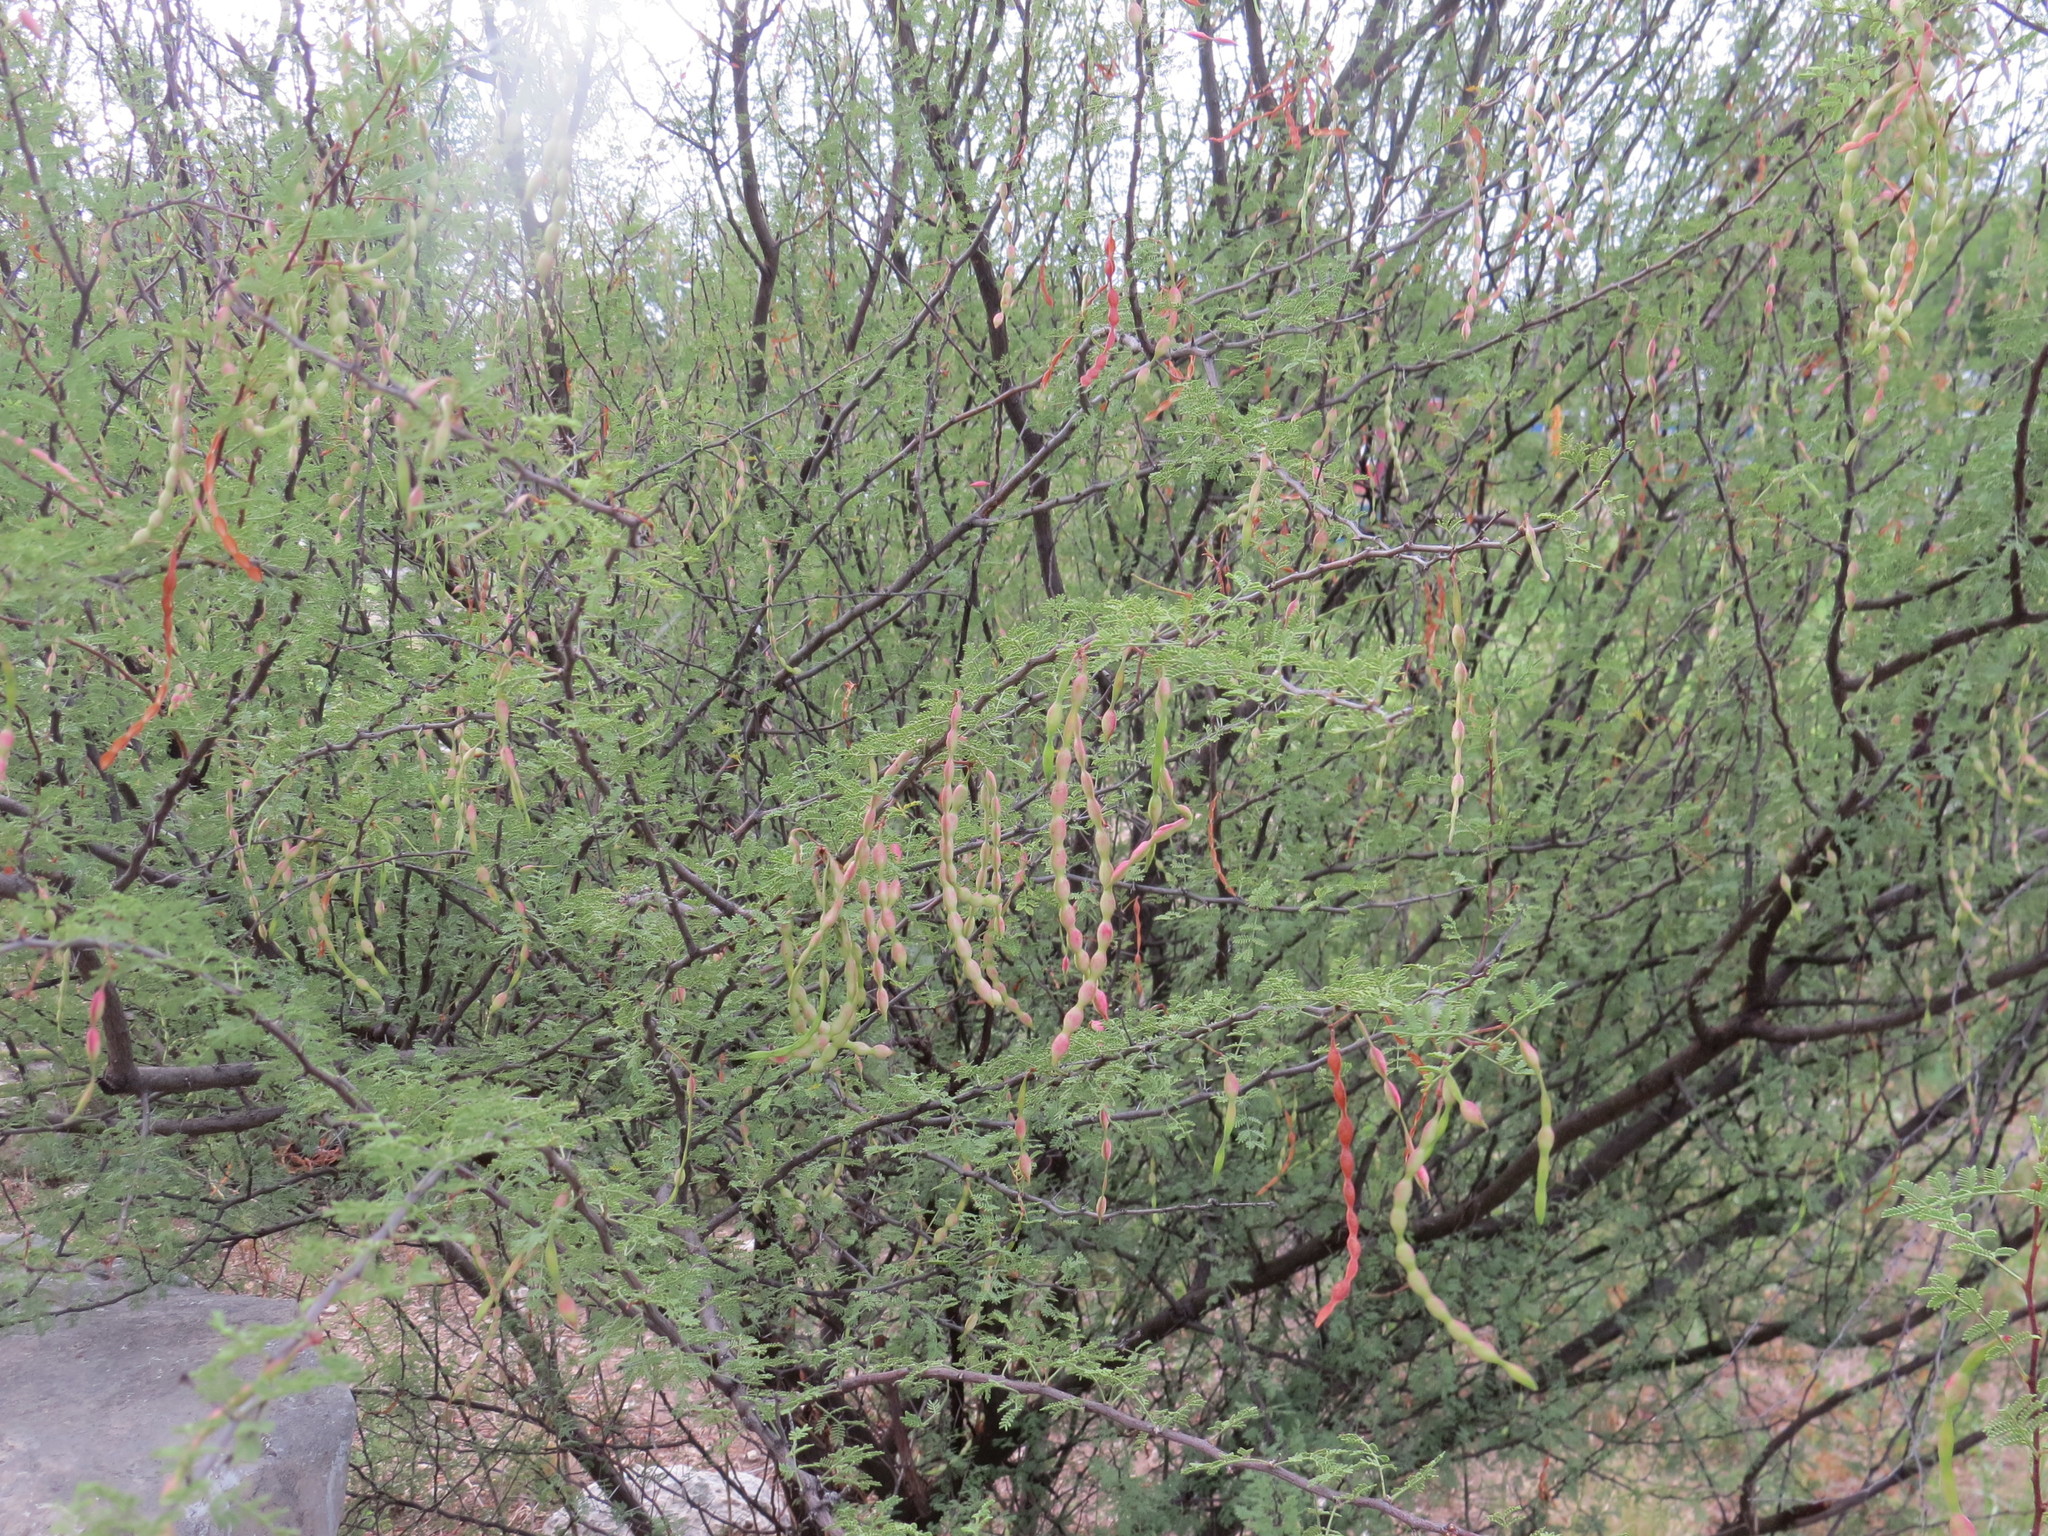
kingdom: Plantae
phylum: Tracheophyta
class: Magnoliopsida
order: Fabales
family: Fabaceae
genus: Vachellia
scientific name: Vachellia constricta
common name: Mescat acacia
